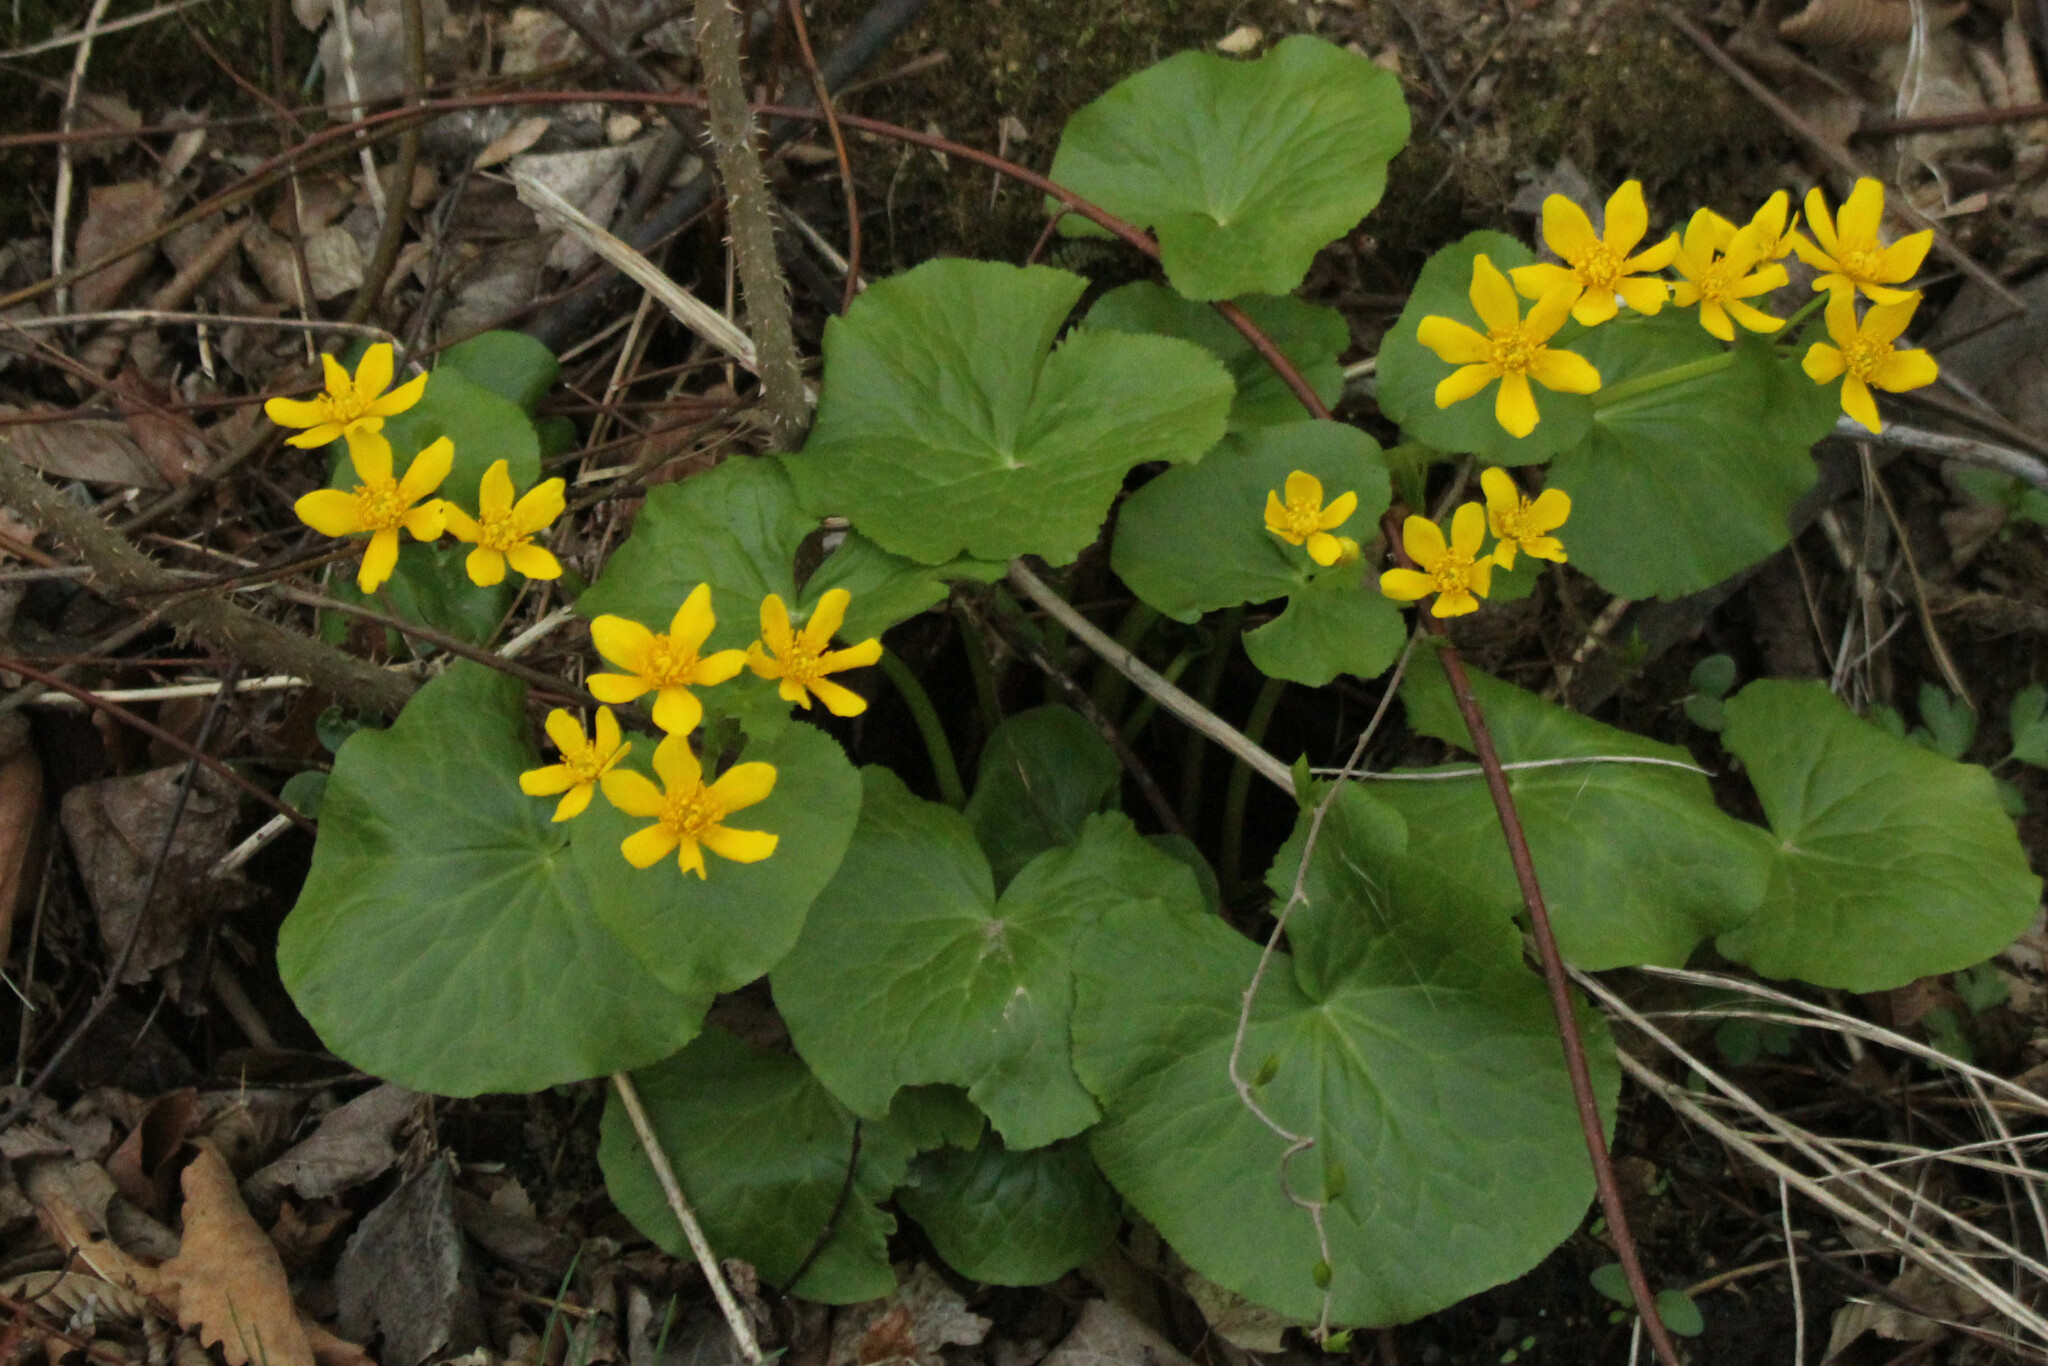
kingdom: Plantae
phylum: Tracheophyta
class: Magnoliopsida
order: Ranunculales
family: Ranunculaceae
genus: Caltha
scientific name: Caltha palustris
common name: Marsh marigold
